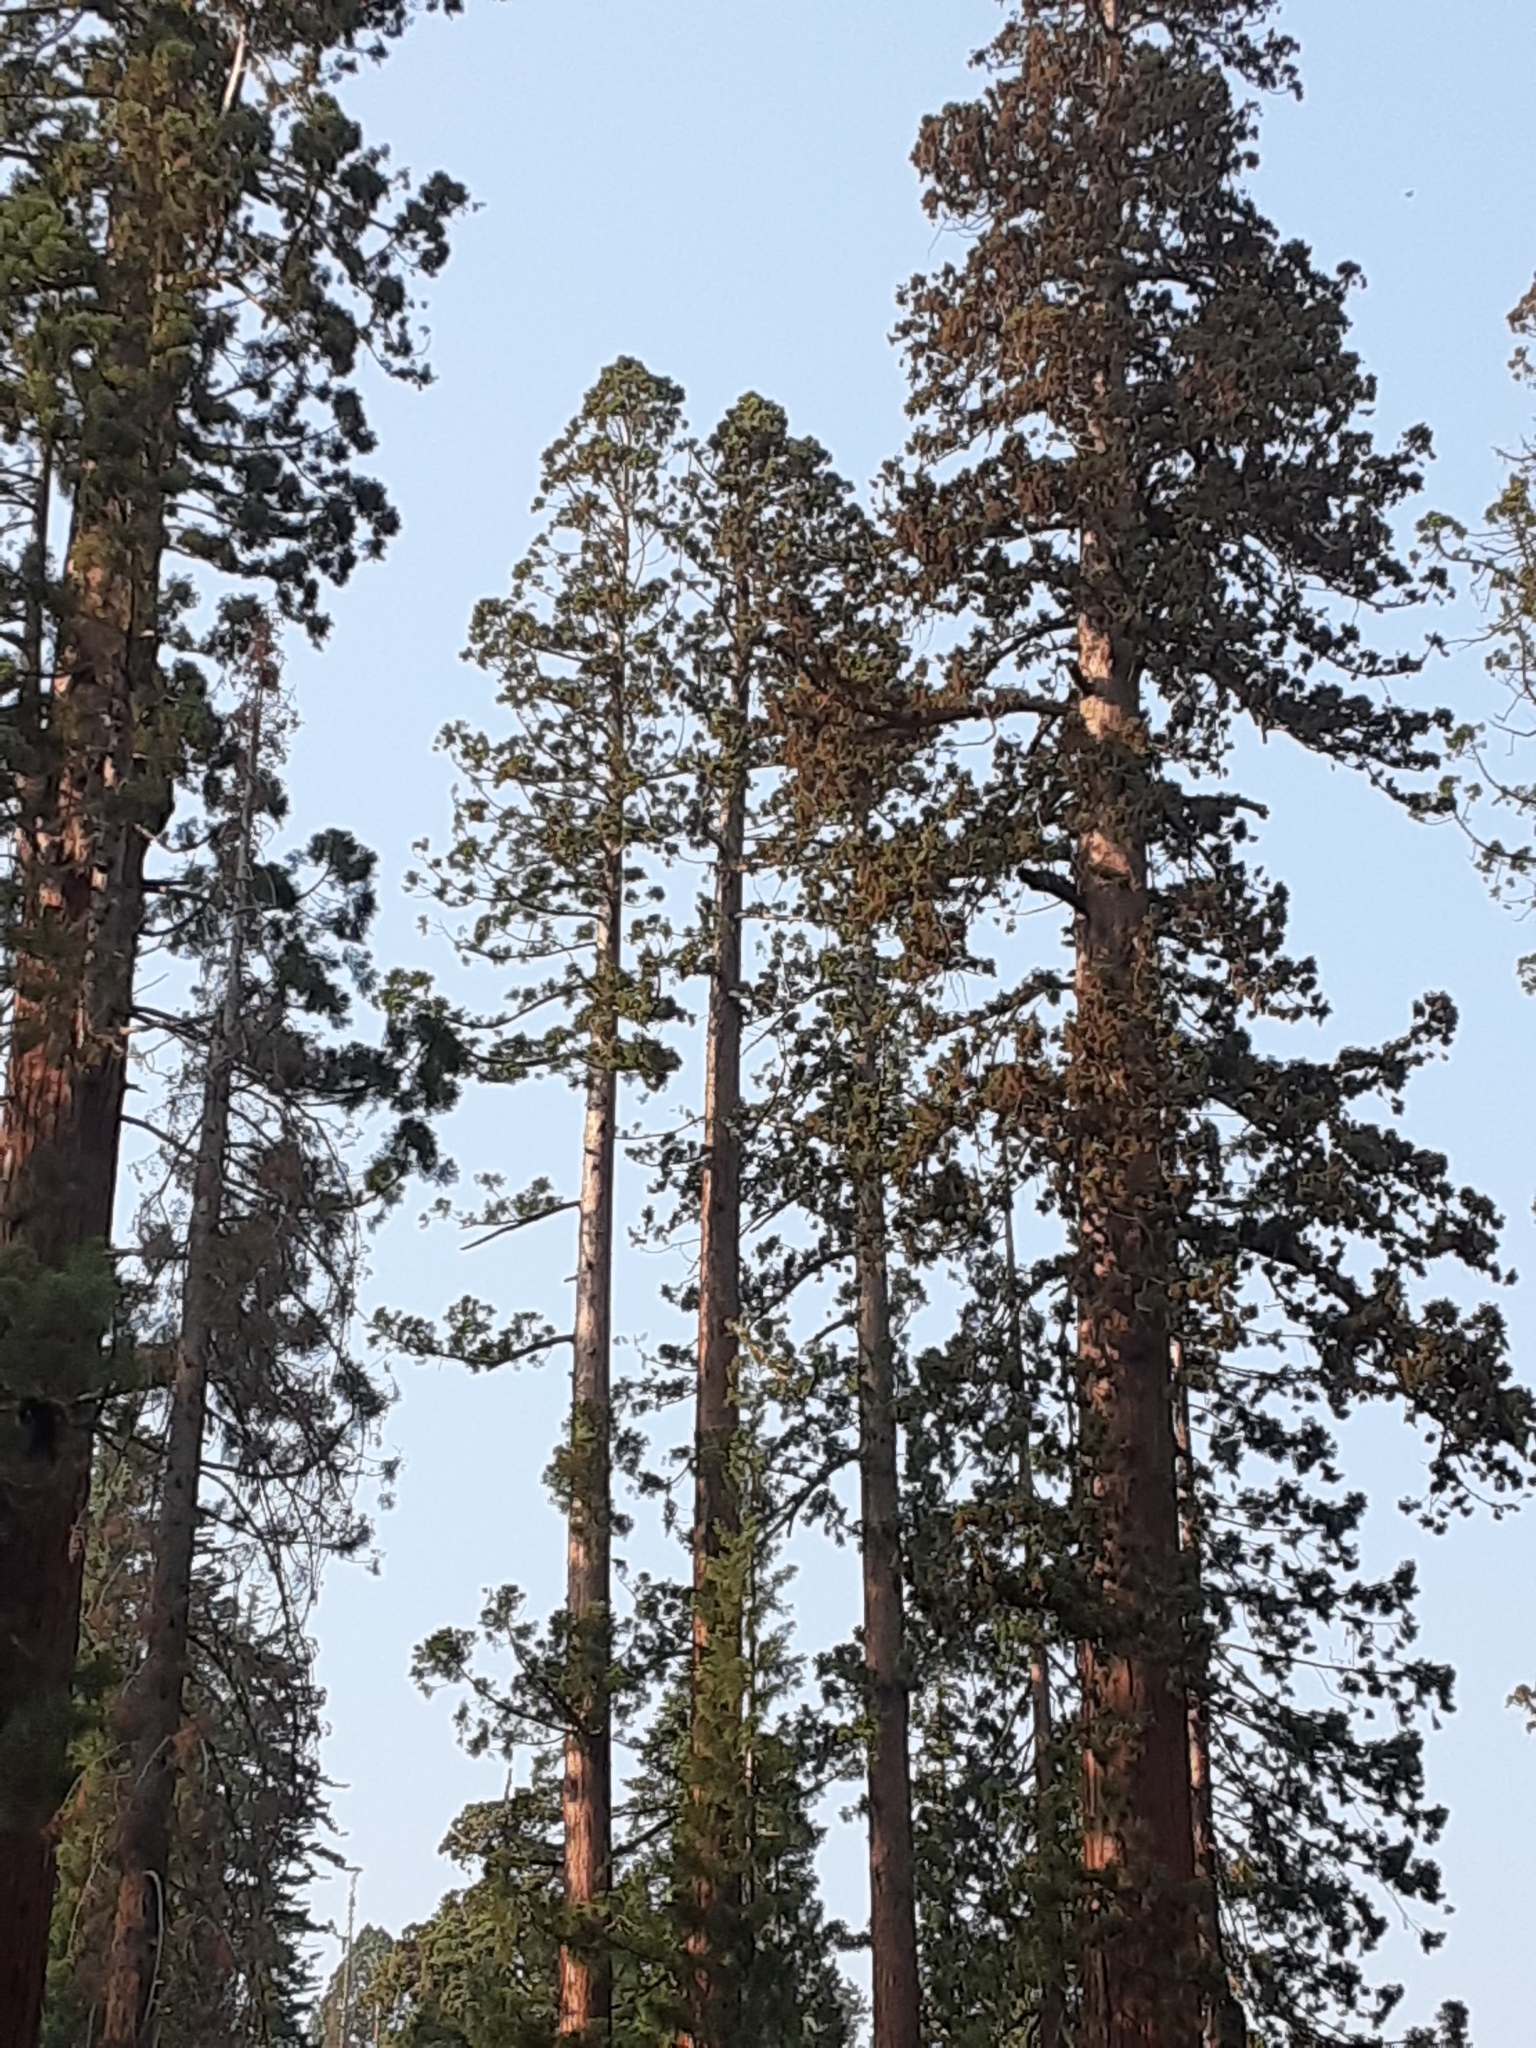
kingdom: Plantae
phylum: Tracheophyta
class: Pinopsida
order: Pinales
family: Cupressaceae
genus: Sequoiadendron
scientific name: Sequoiadendron giganteum
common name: Wellingtonia
